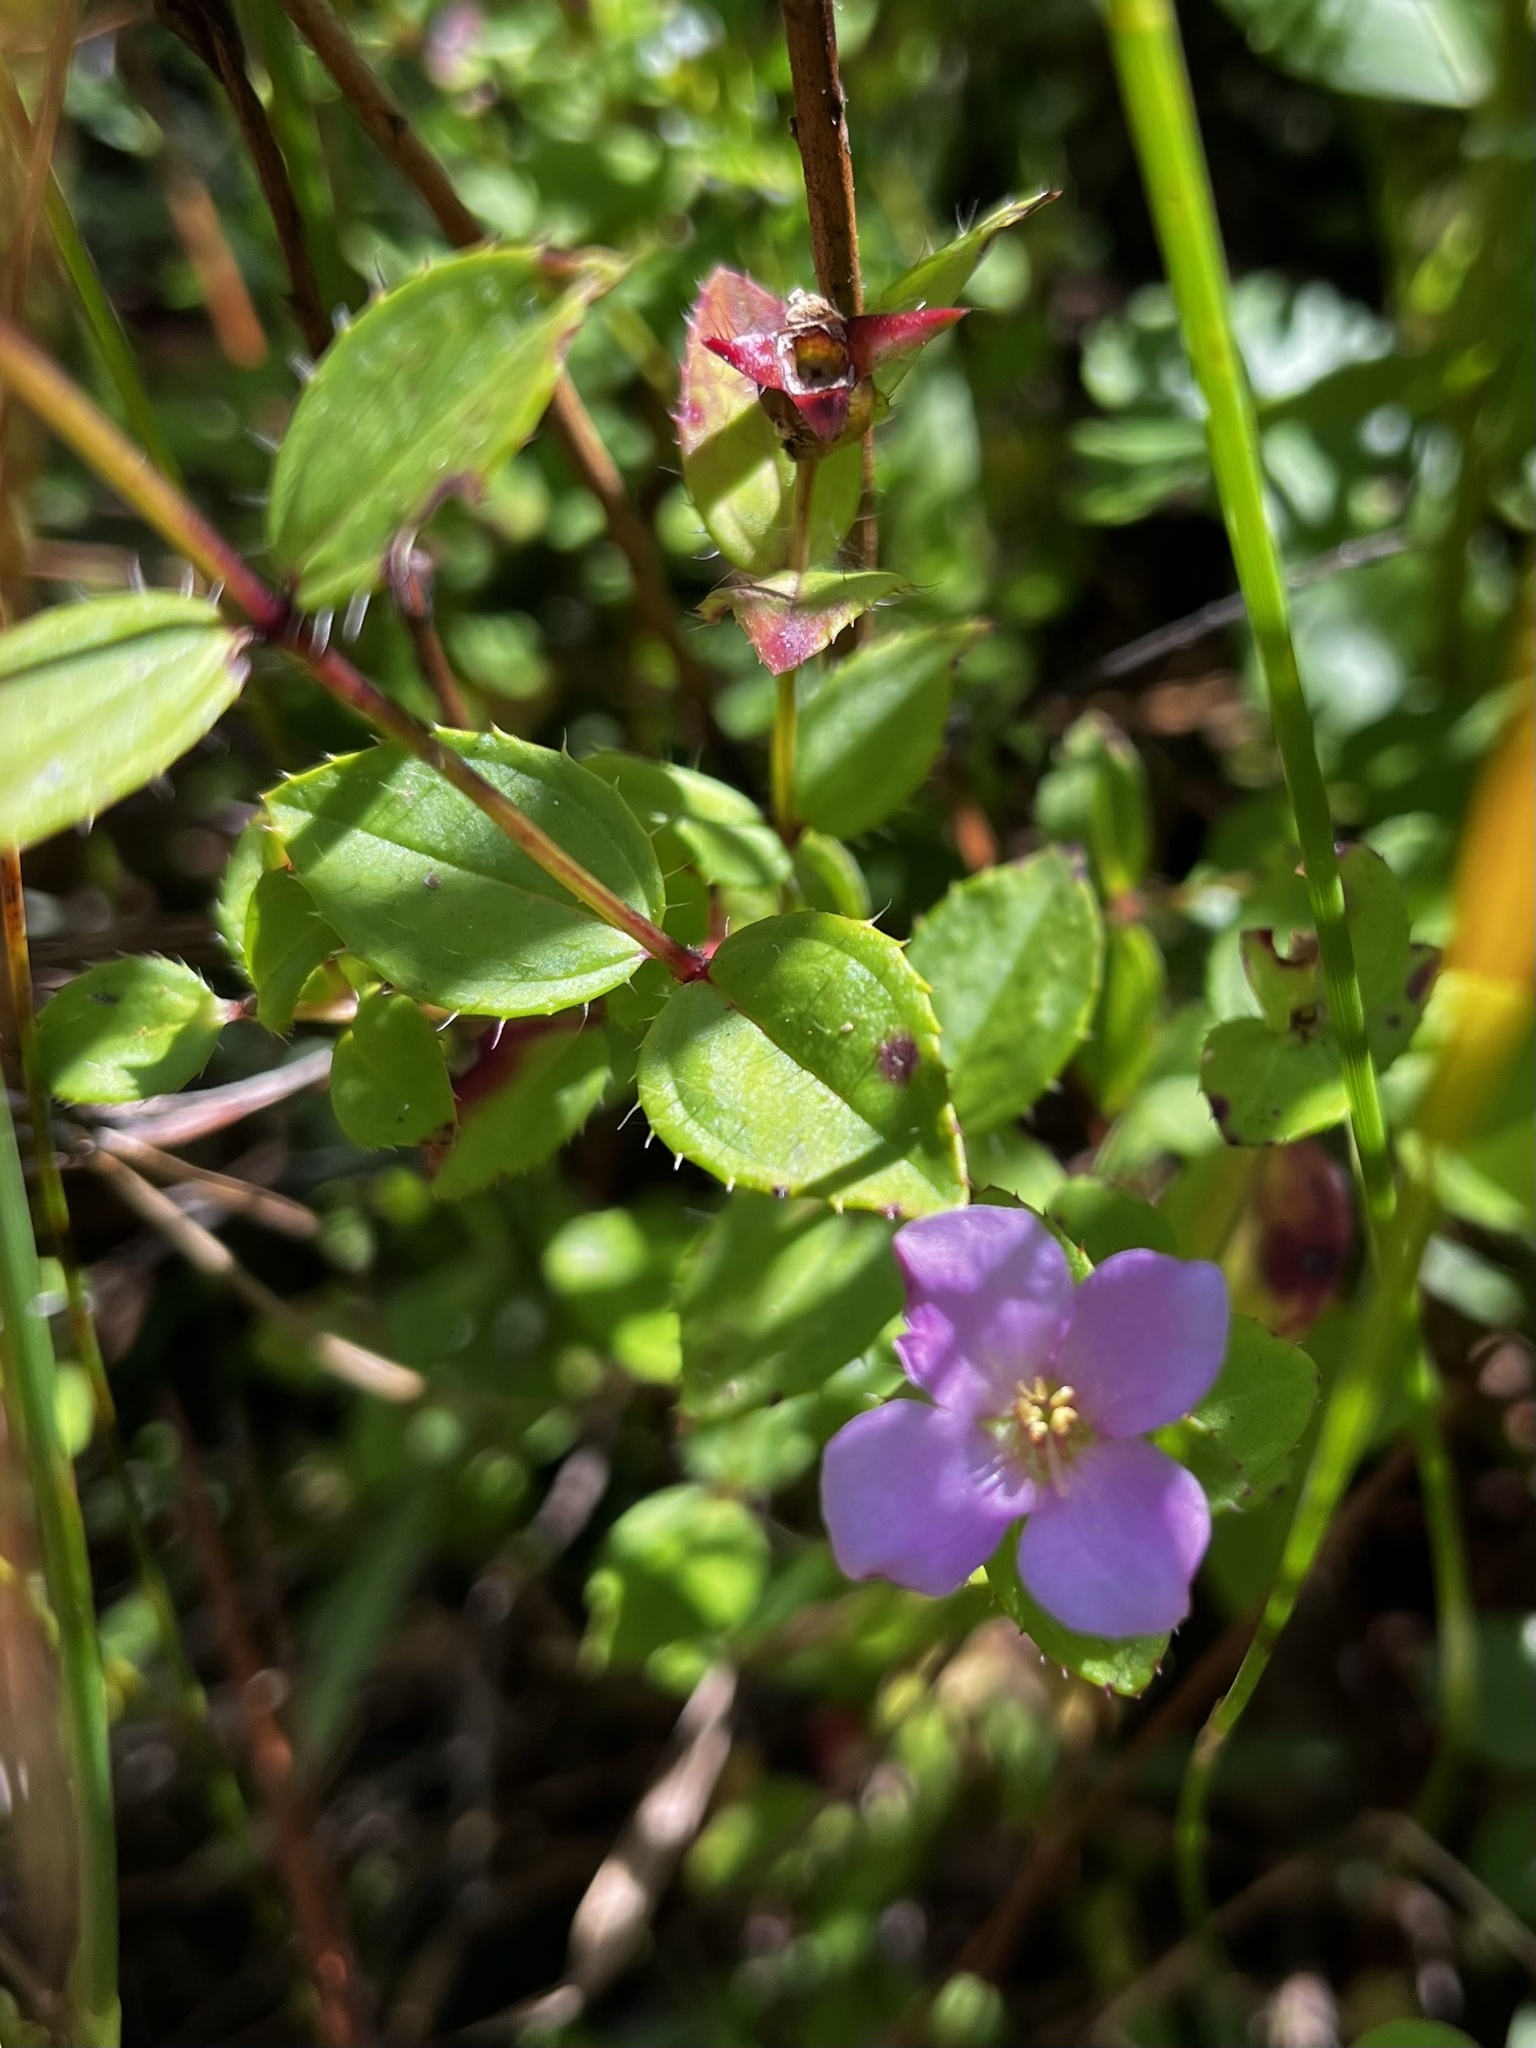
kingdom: Plantae
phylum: Tracheophyta
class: Magnoliopsida
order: Myrtales
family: Melastomataceae
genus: Rhexia
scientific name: Rhexia petiolata
